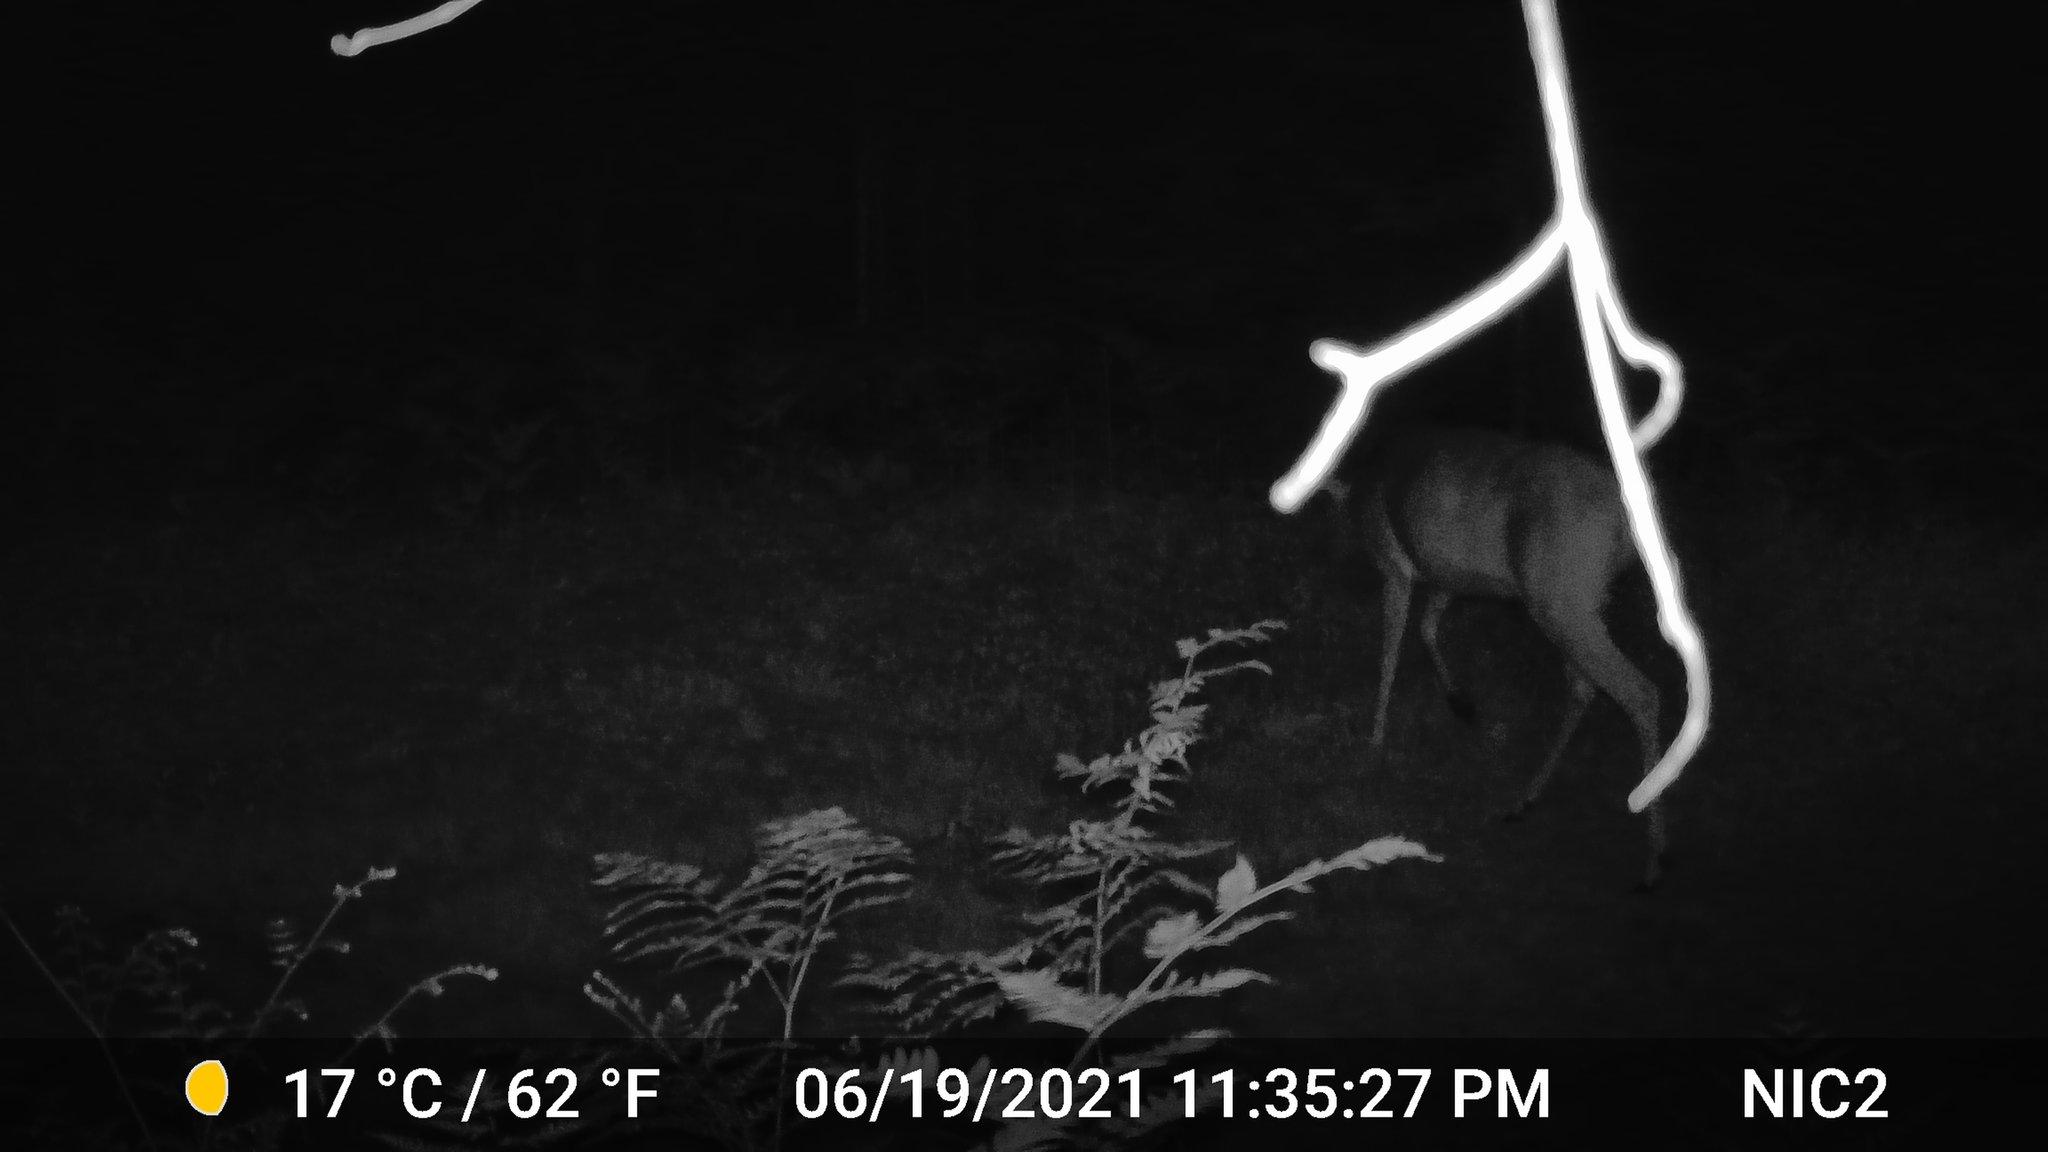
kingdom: Animalia
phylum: Chordata
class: Mammalia
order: Artiodactyla
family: Cervidae
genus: Odocoileus
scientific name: Odocoileus virginianus
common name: White-tailed deer
